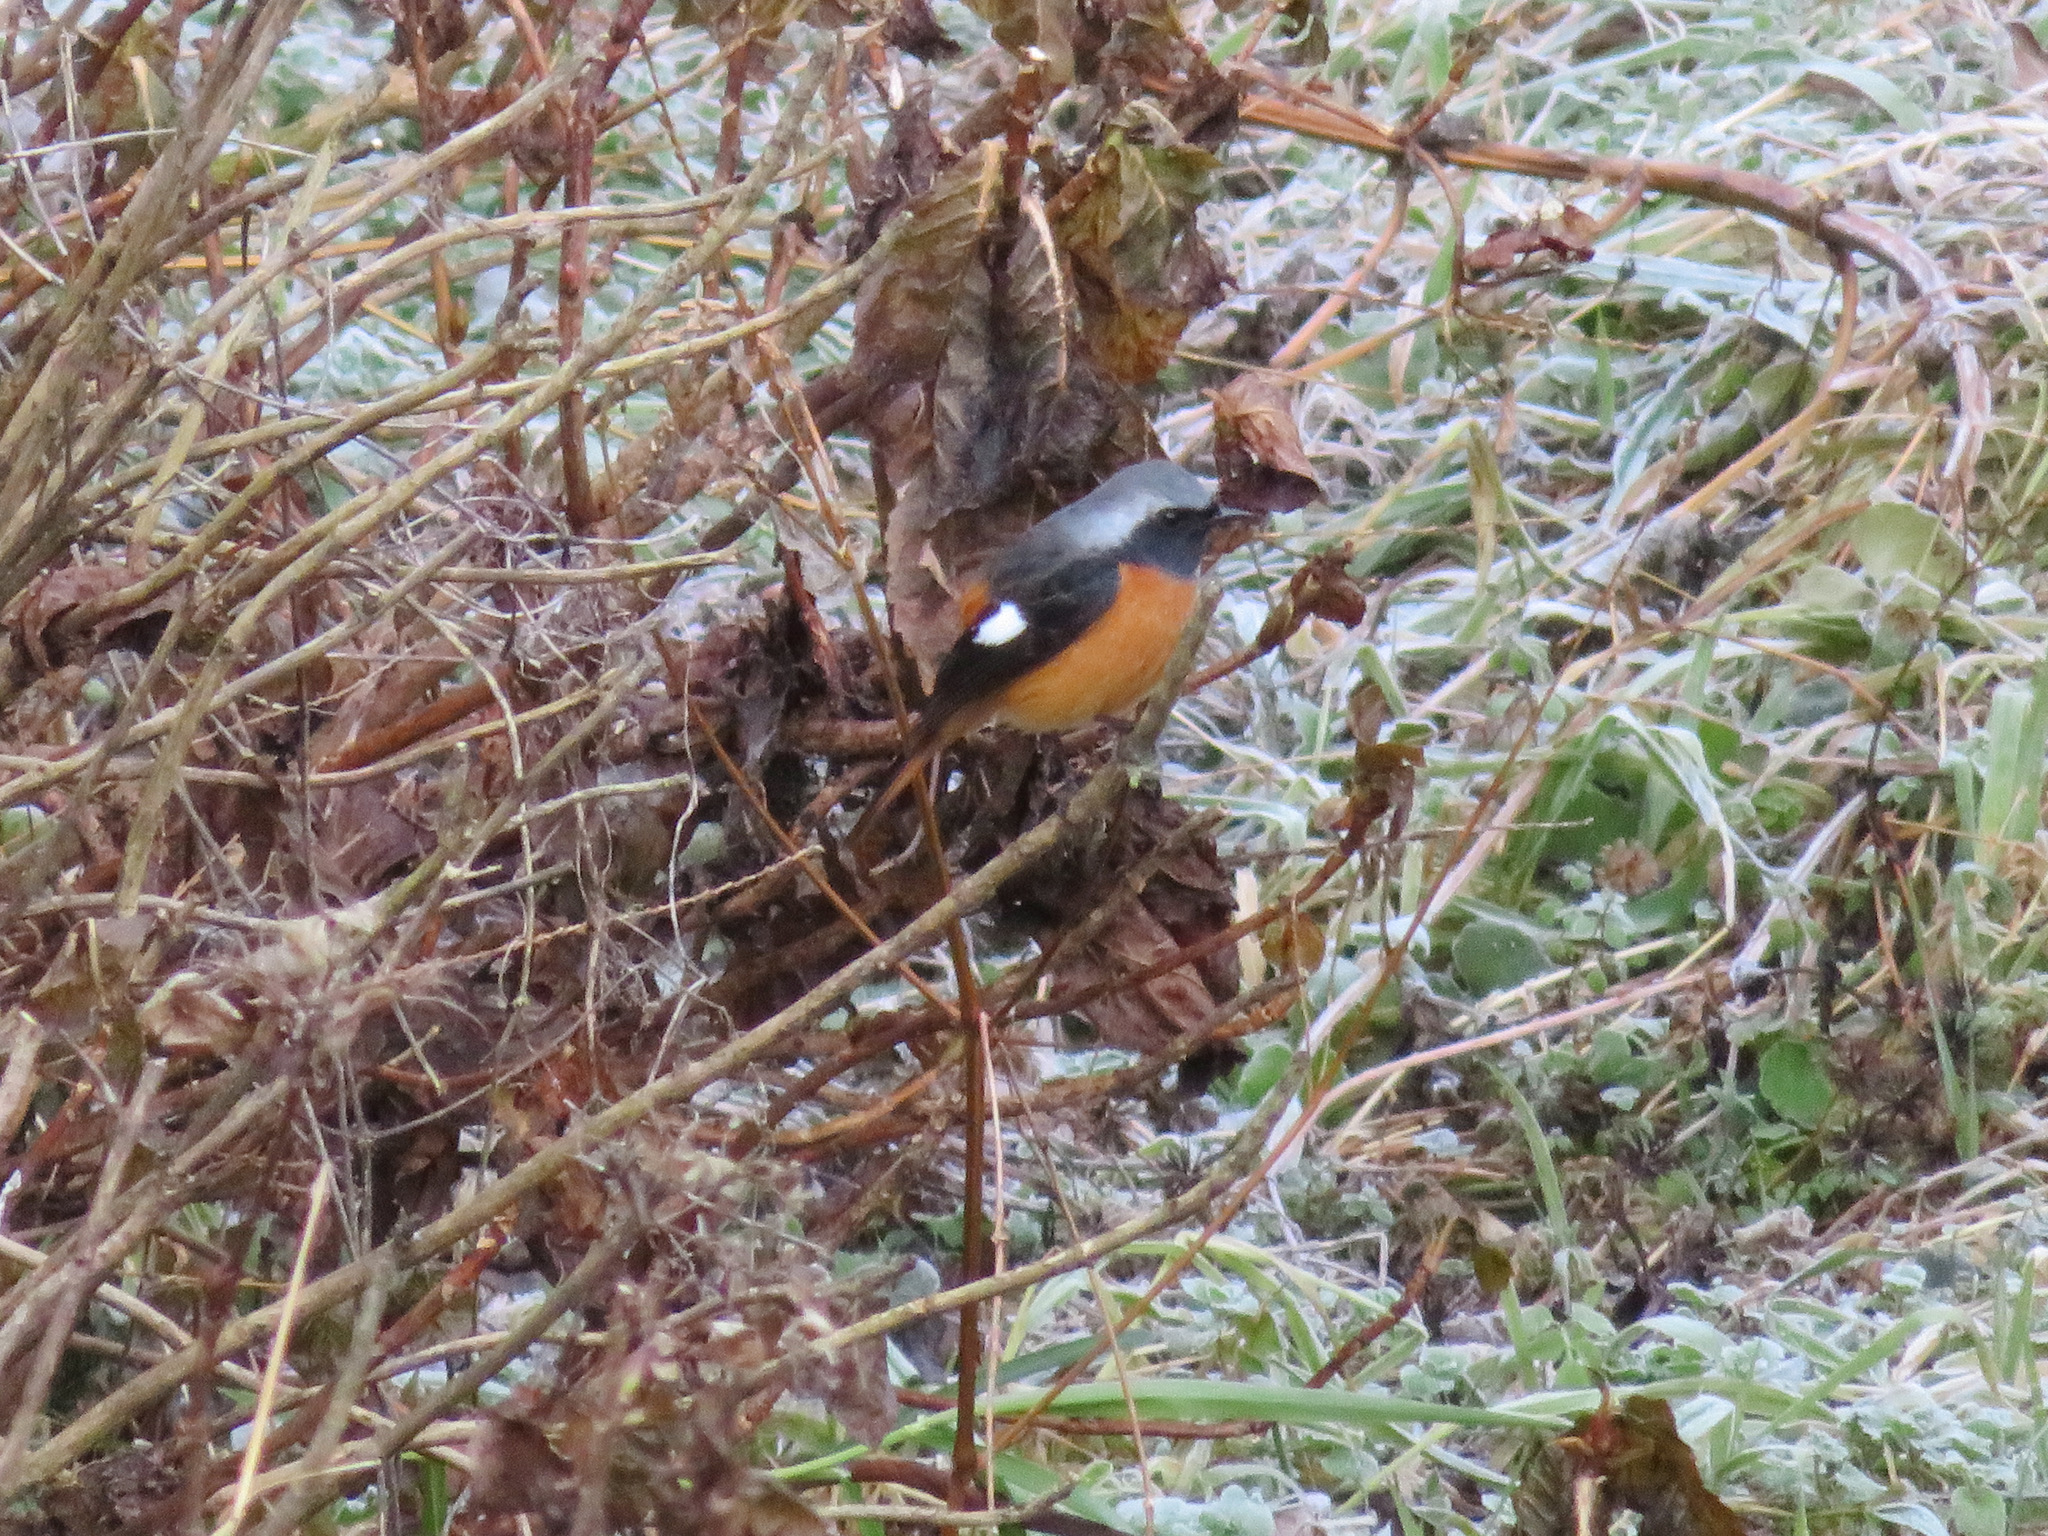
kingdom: Animalia
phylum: Chordata
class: Aves
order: Passeriformes
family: Muscicapidae
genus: Phoenicurus
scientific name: Phoenicurus auroreus
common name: Daurian redstart
